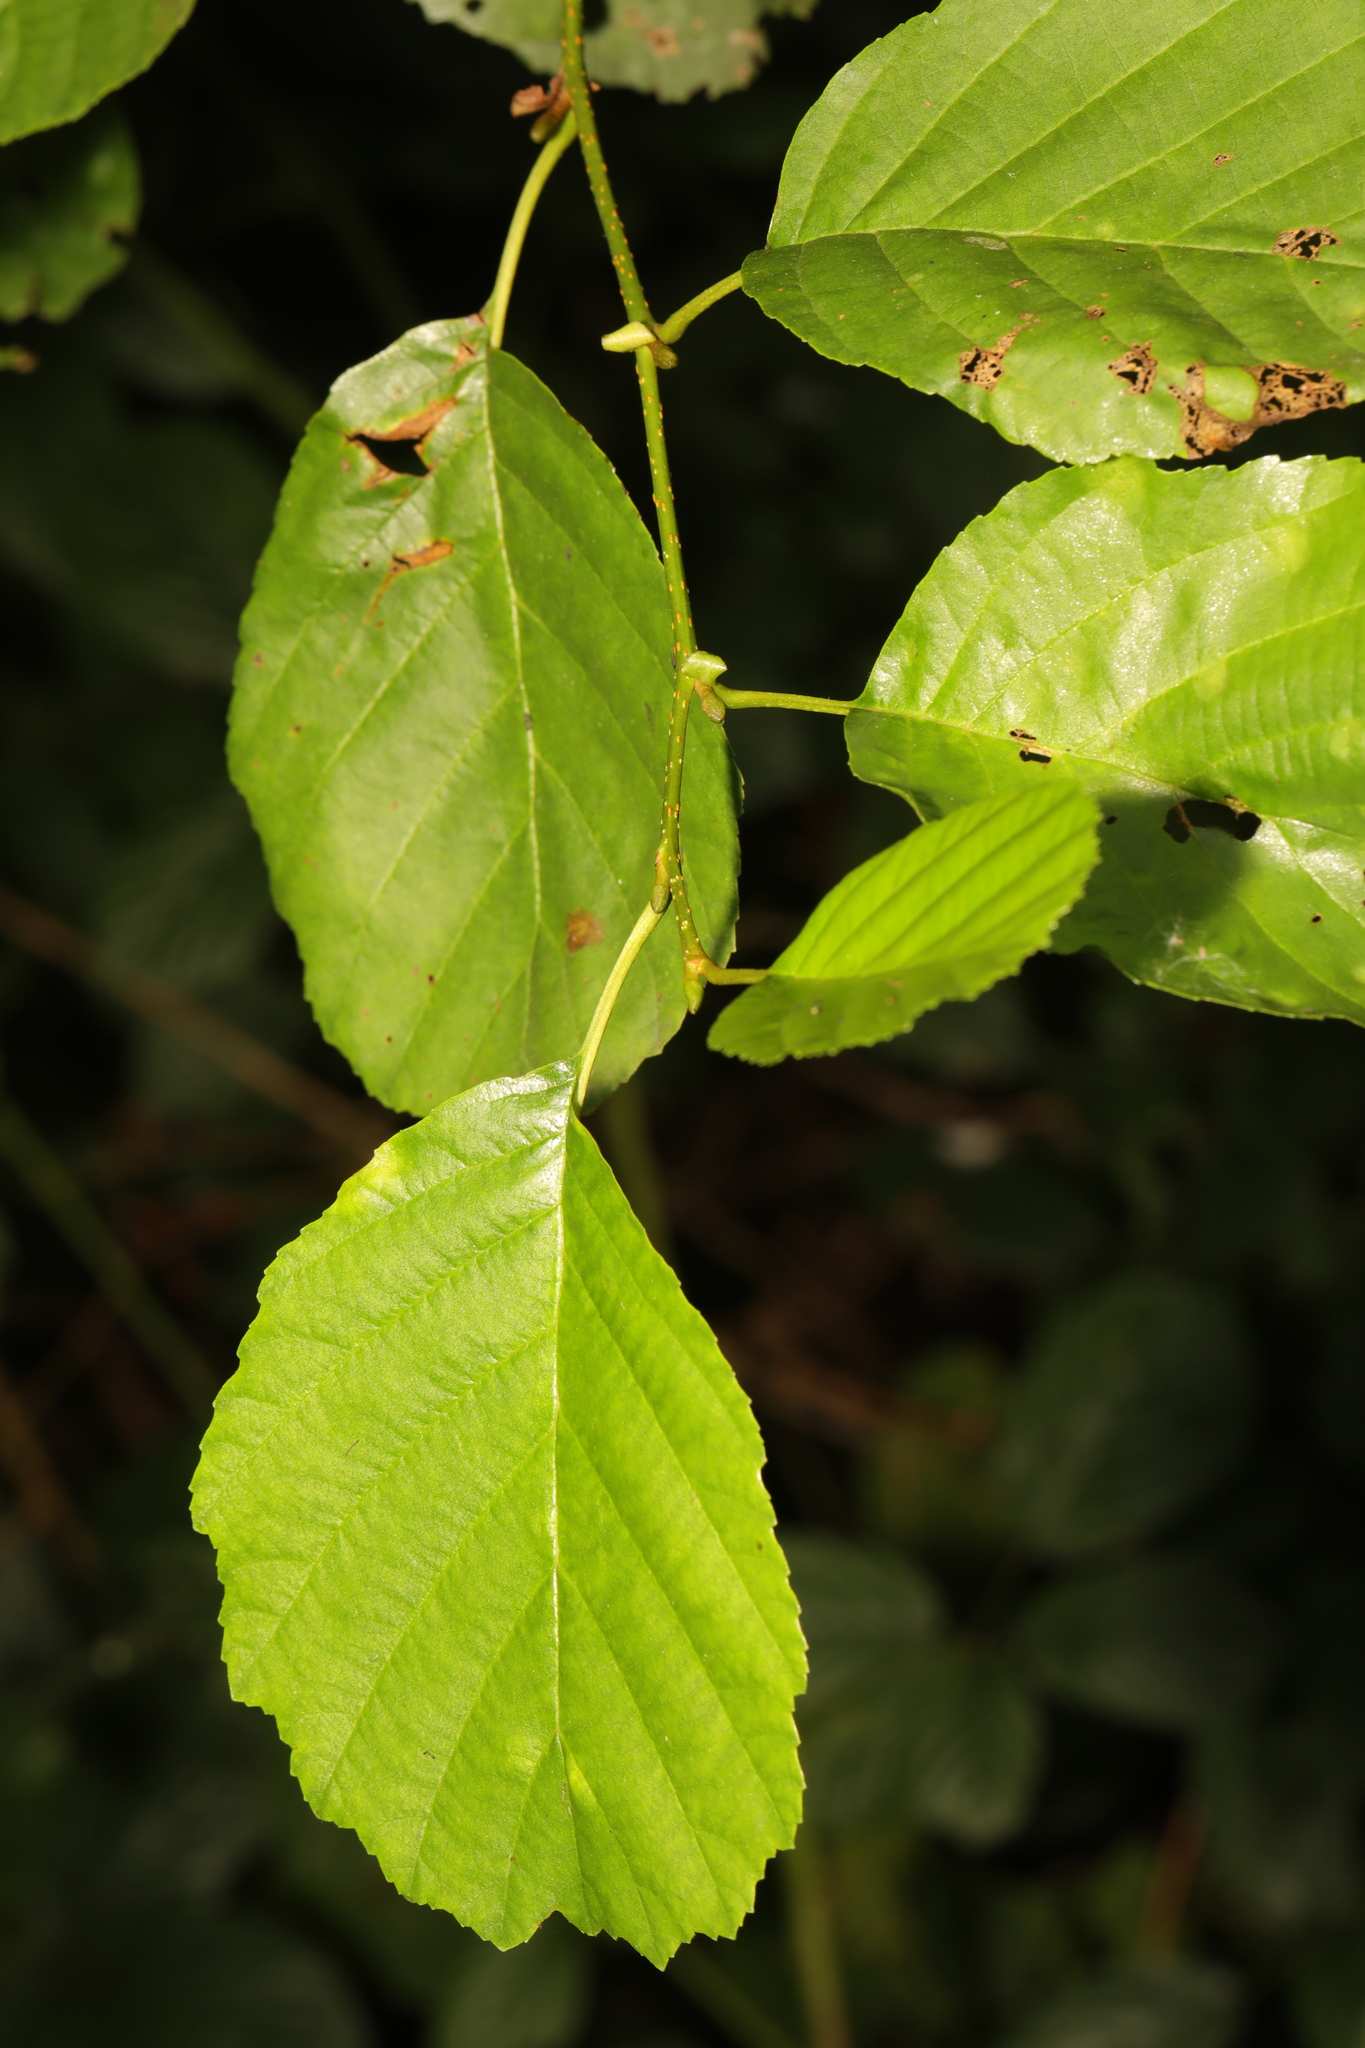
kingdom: Plantae
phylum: Tracheophyta
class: Magnoliopsida
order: Fagales
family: Betulaceae
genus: Alnus
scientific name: Alnus glutinosa
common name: Black alder
